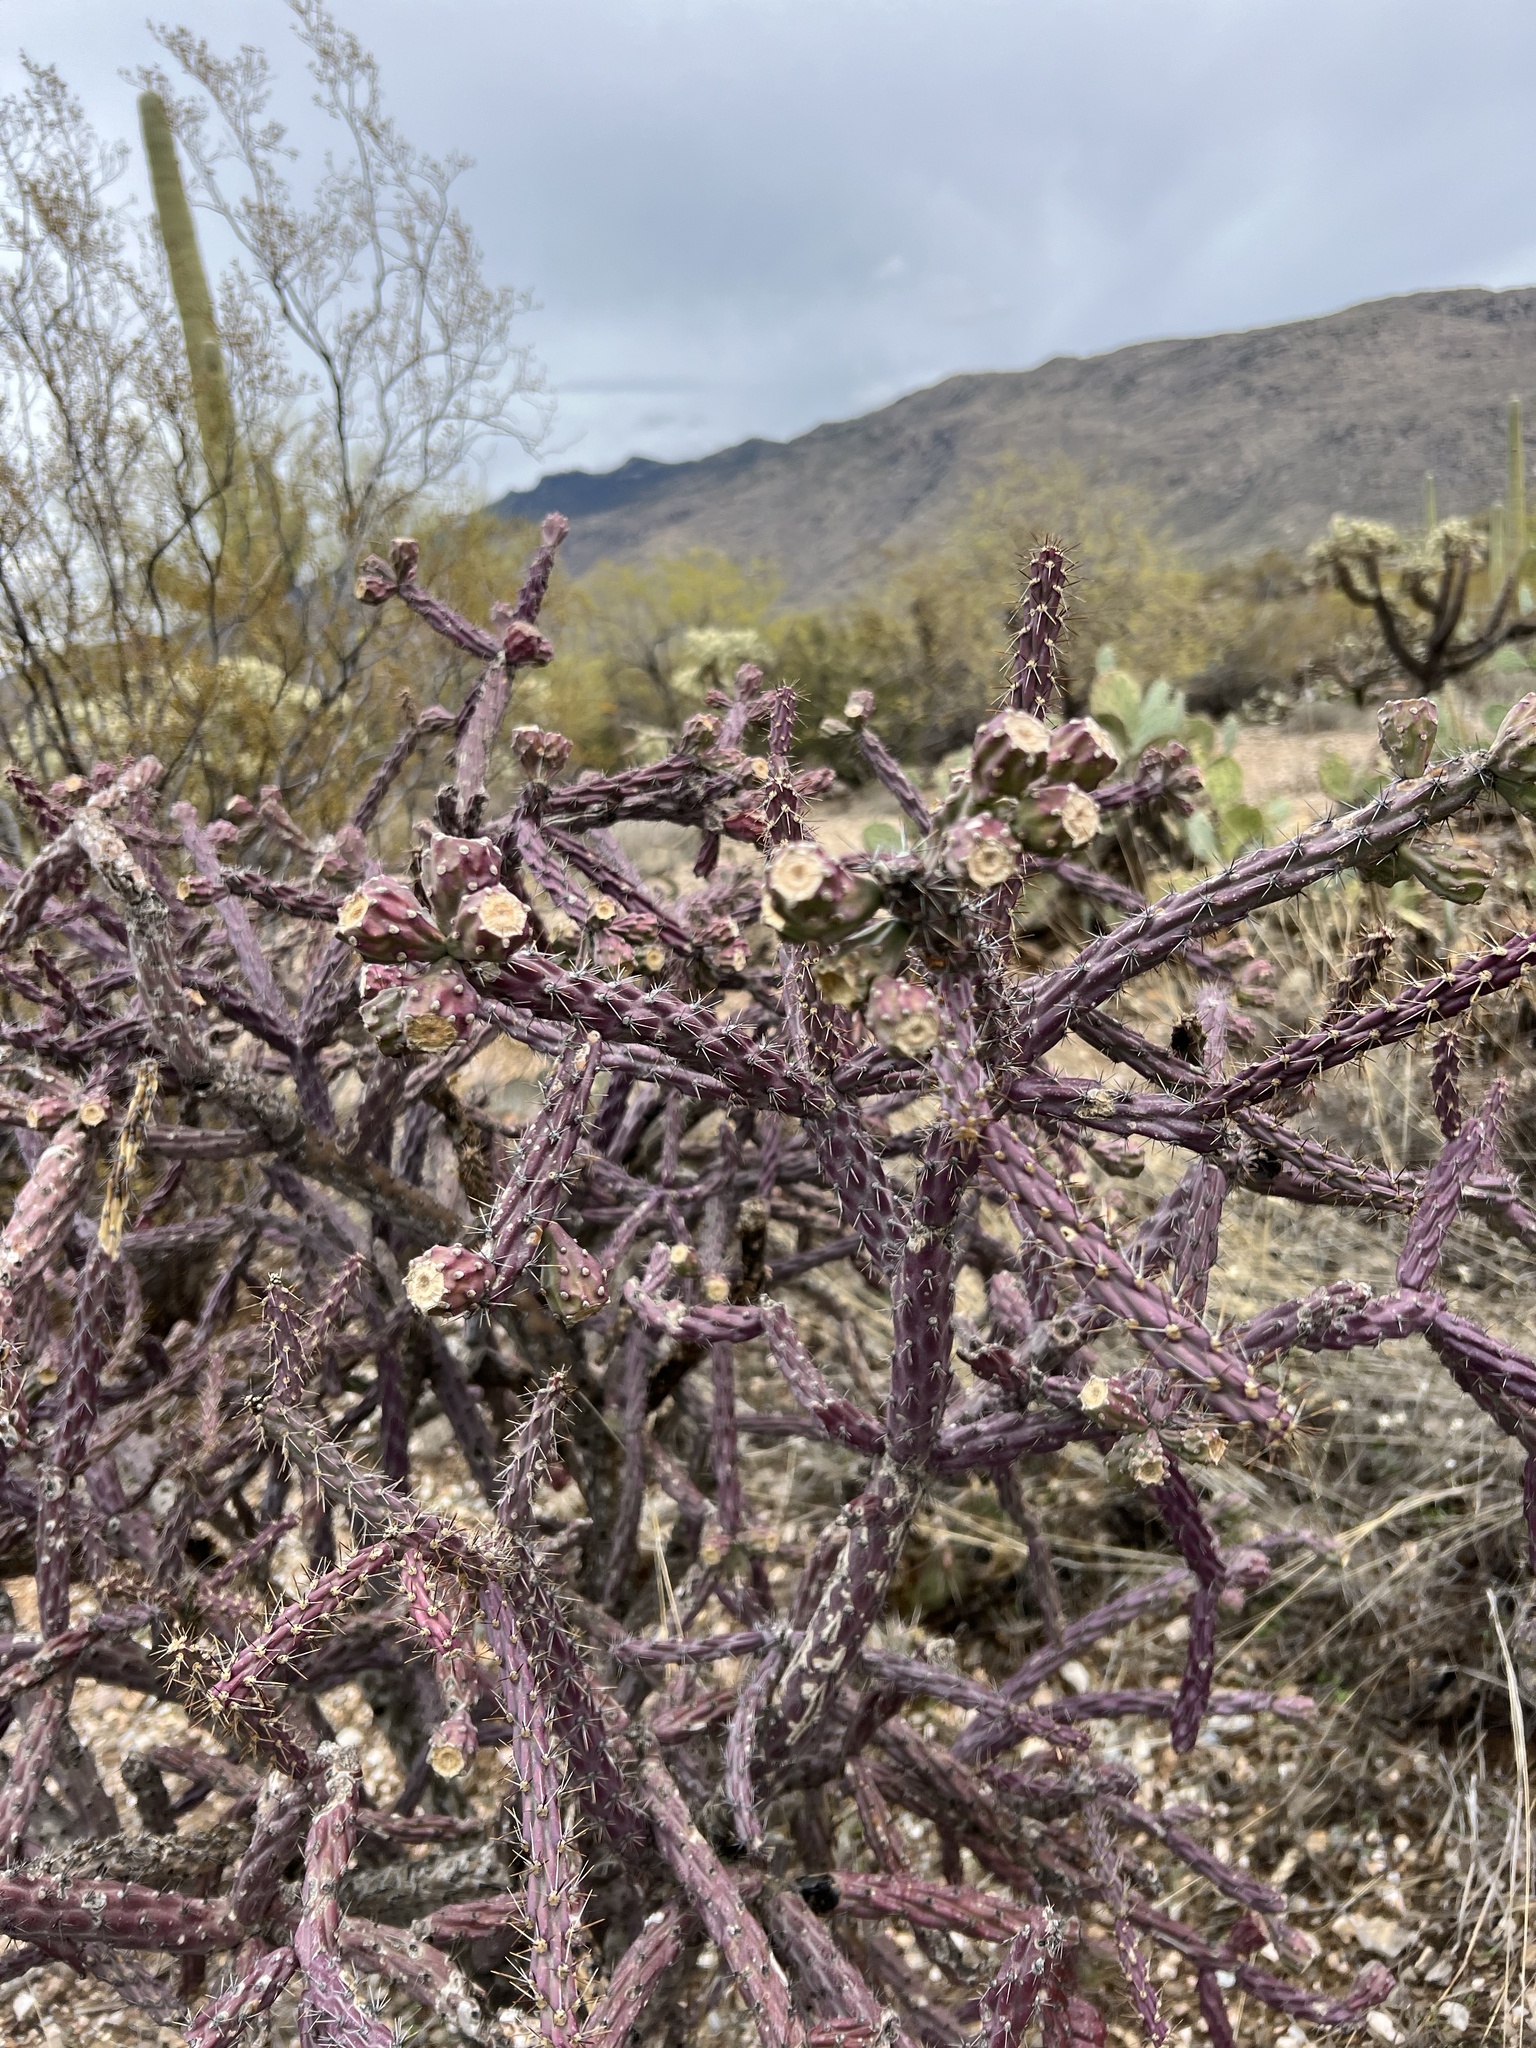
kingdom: Plantae
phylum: Tracheophyta
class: Magnoliopsida
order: Caryophyllales
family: Cactaceae
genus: Cylindropuntia
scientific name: Cylindropuntia thurberi
